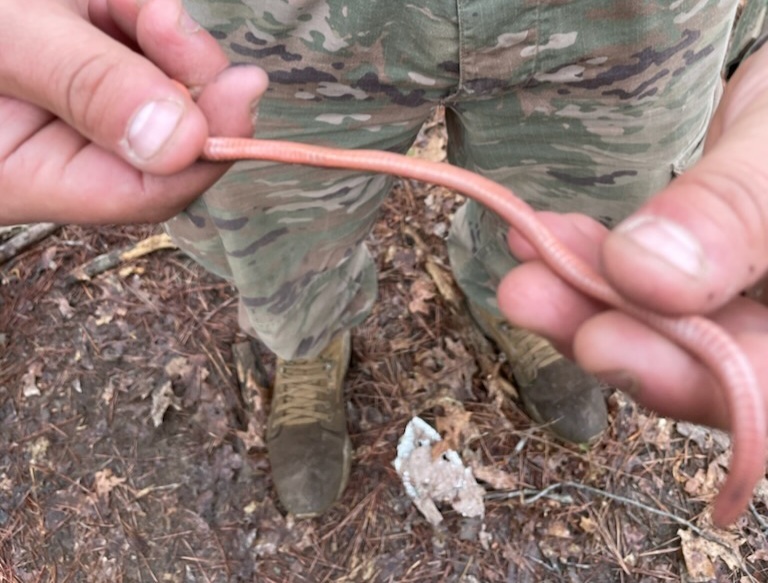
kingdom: Animalia
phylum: Chordata
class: Squamata
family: Colubridae
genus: Carphophis
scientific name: Carphophis amoenus
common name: Eastern worm snake
